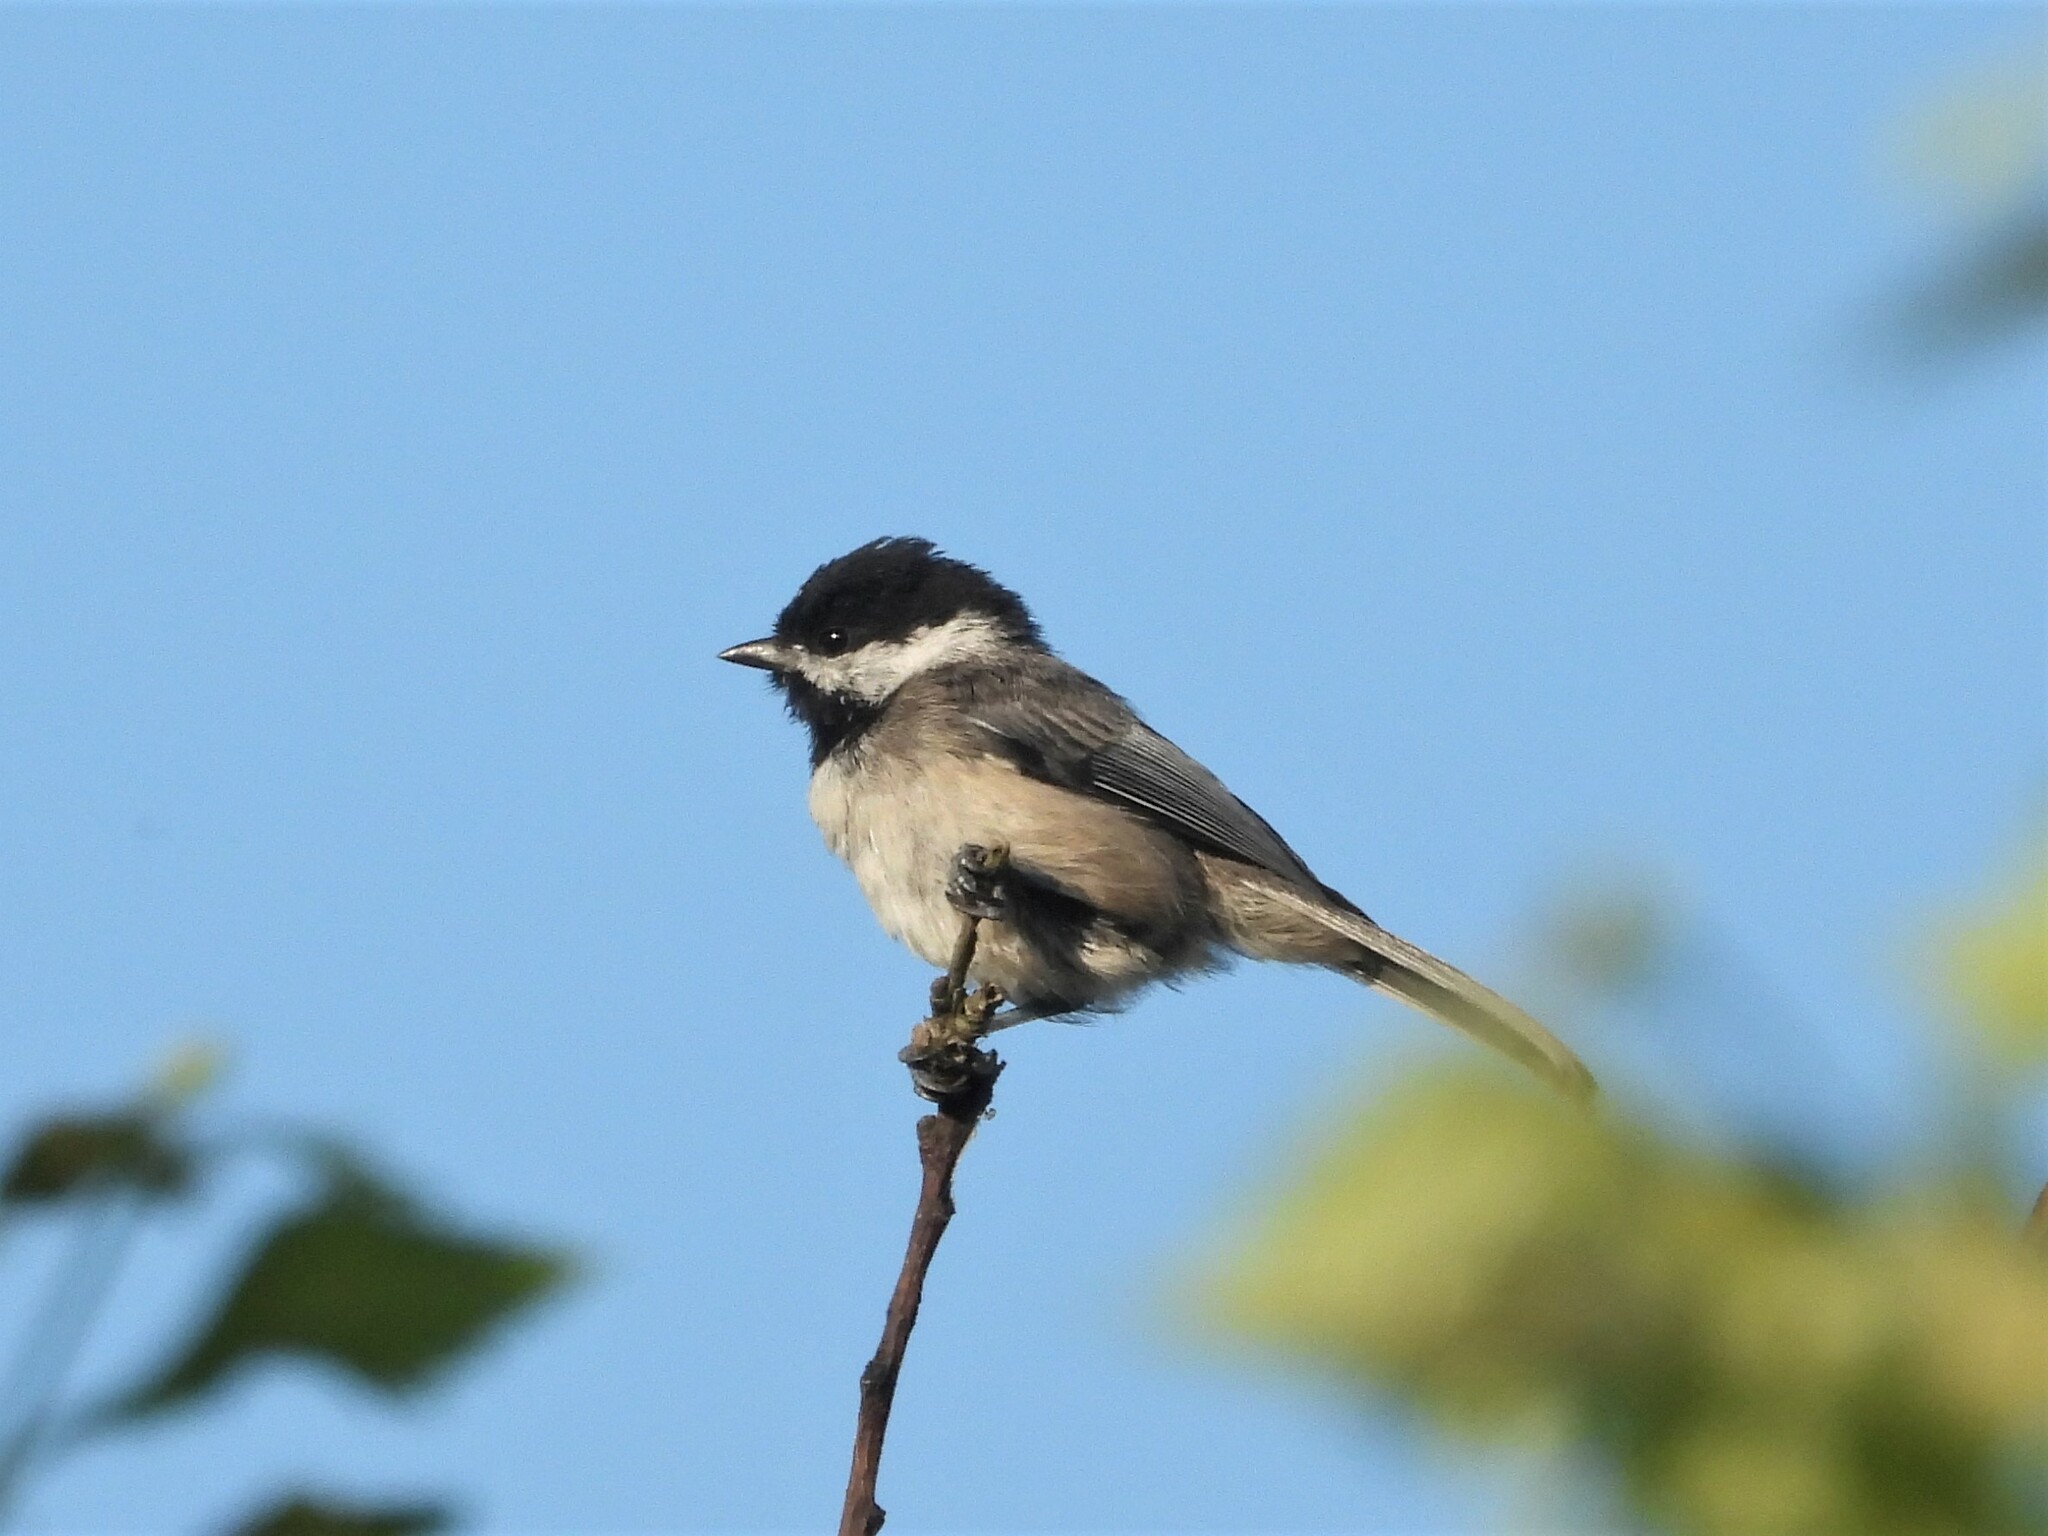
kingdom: Animalia
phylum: Chordata
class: Aves
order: Passeriformes
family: Paridae
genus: Poecile
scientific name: Poecile atricapillus
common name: Black-capped chickadee
